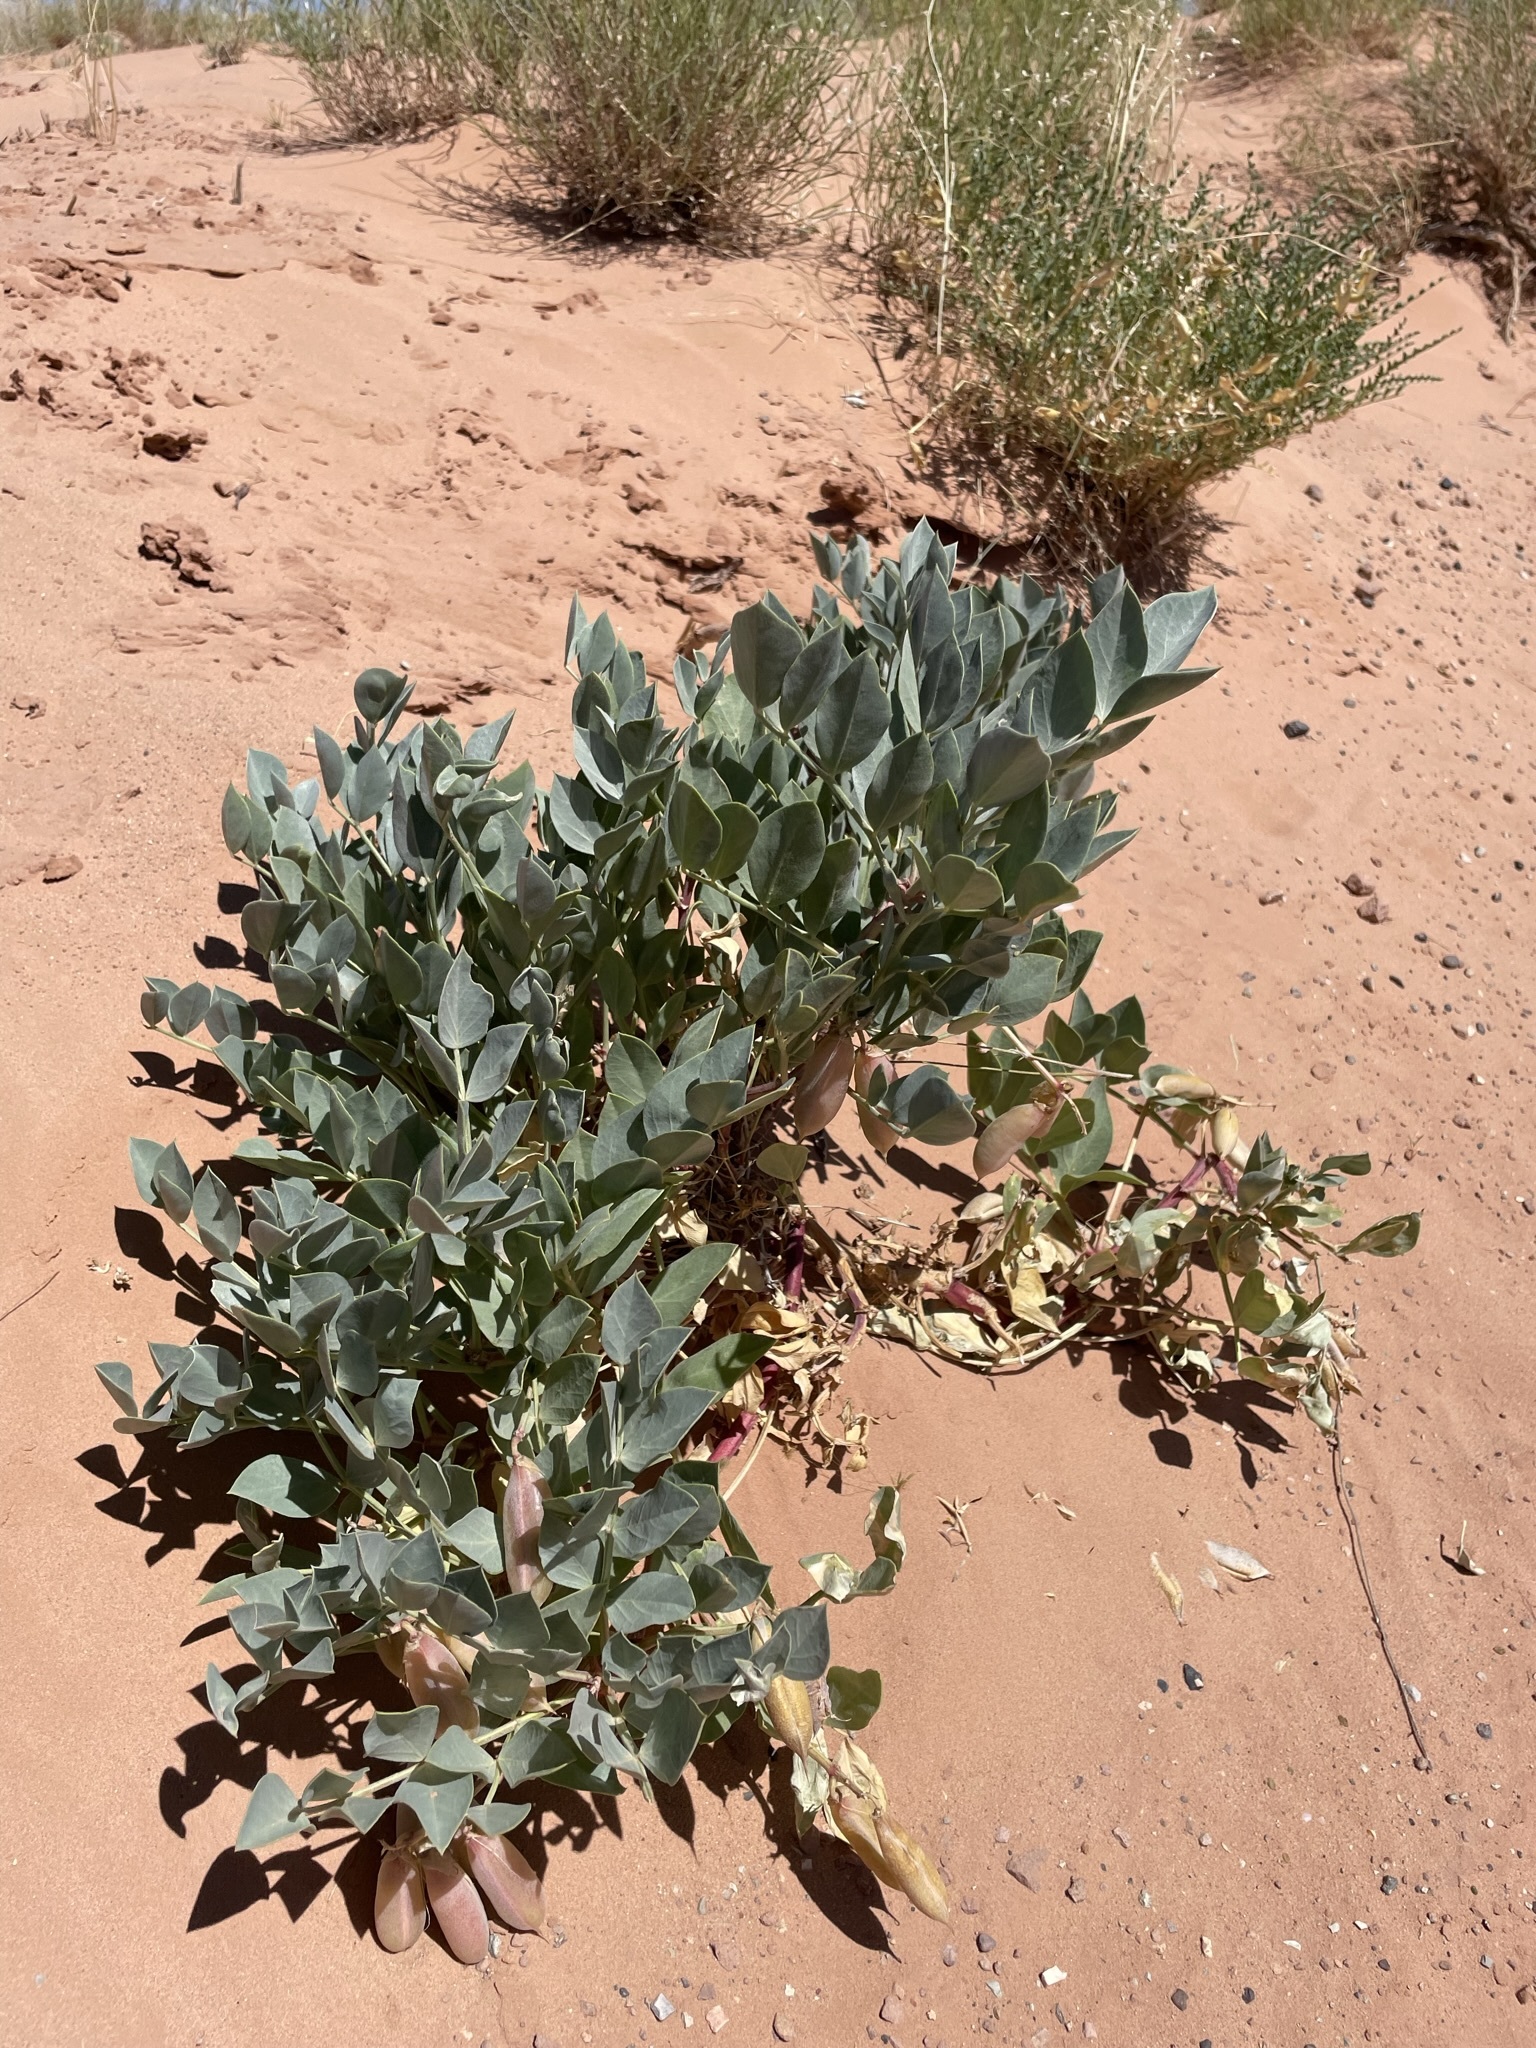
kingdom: Plantae
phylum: Tracheophyta
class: Magnoliopsida
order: Fabales
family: Fabaceae
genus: Astragalus
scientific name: Astragalus sabulosus
